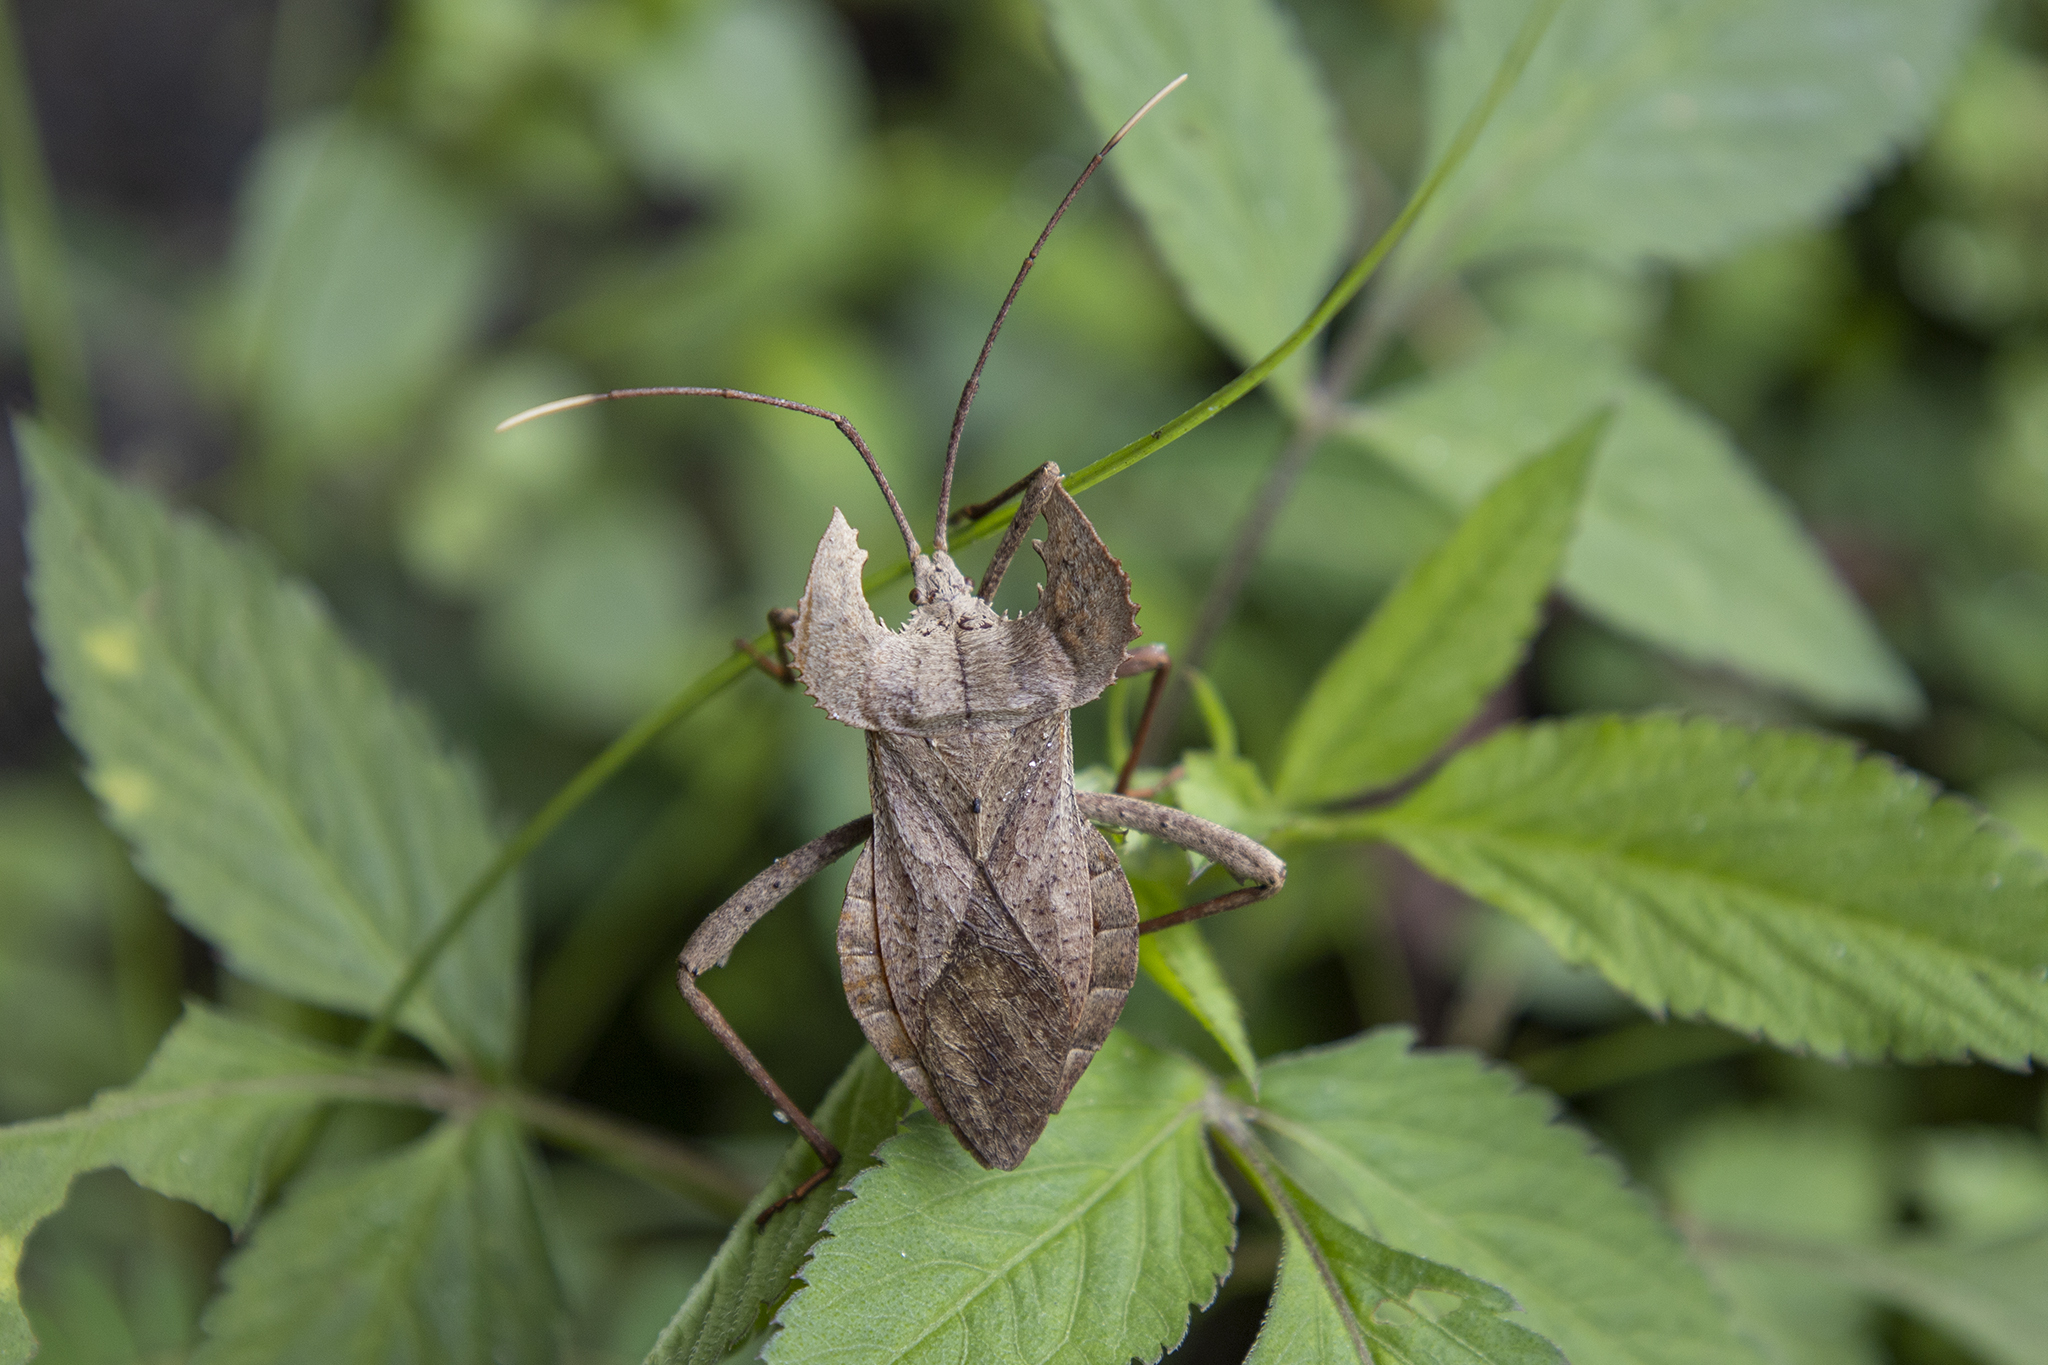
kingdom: Animalia
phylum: Arthropoda
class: Insecta
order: Hemiptera
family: Coreidae
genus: Molipteryx
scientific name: Molipteryx hardwickii
